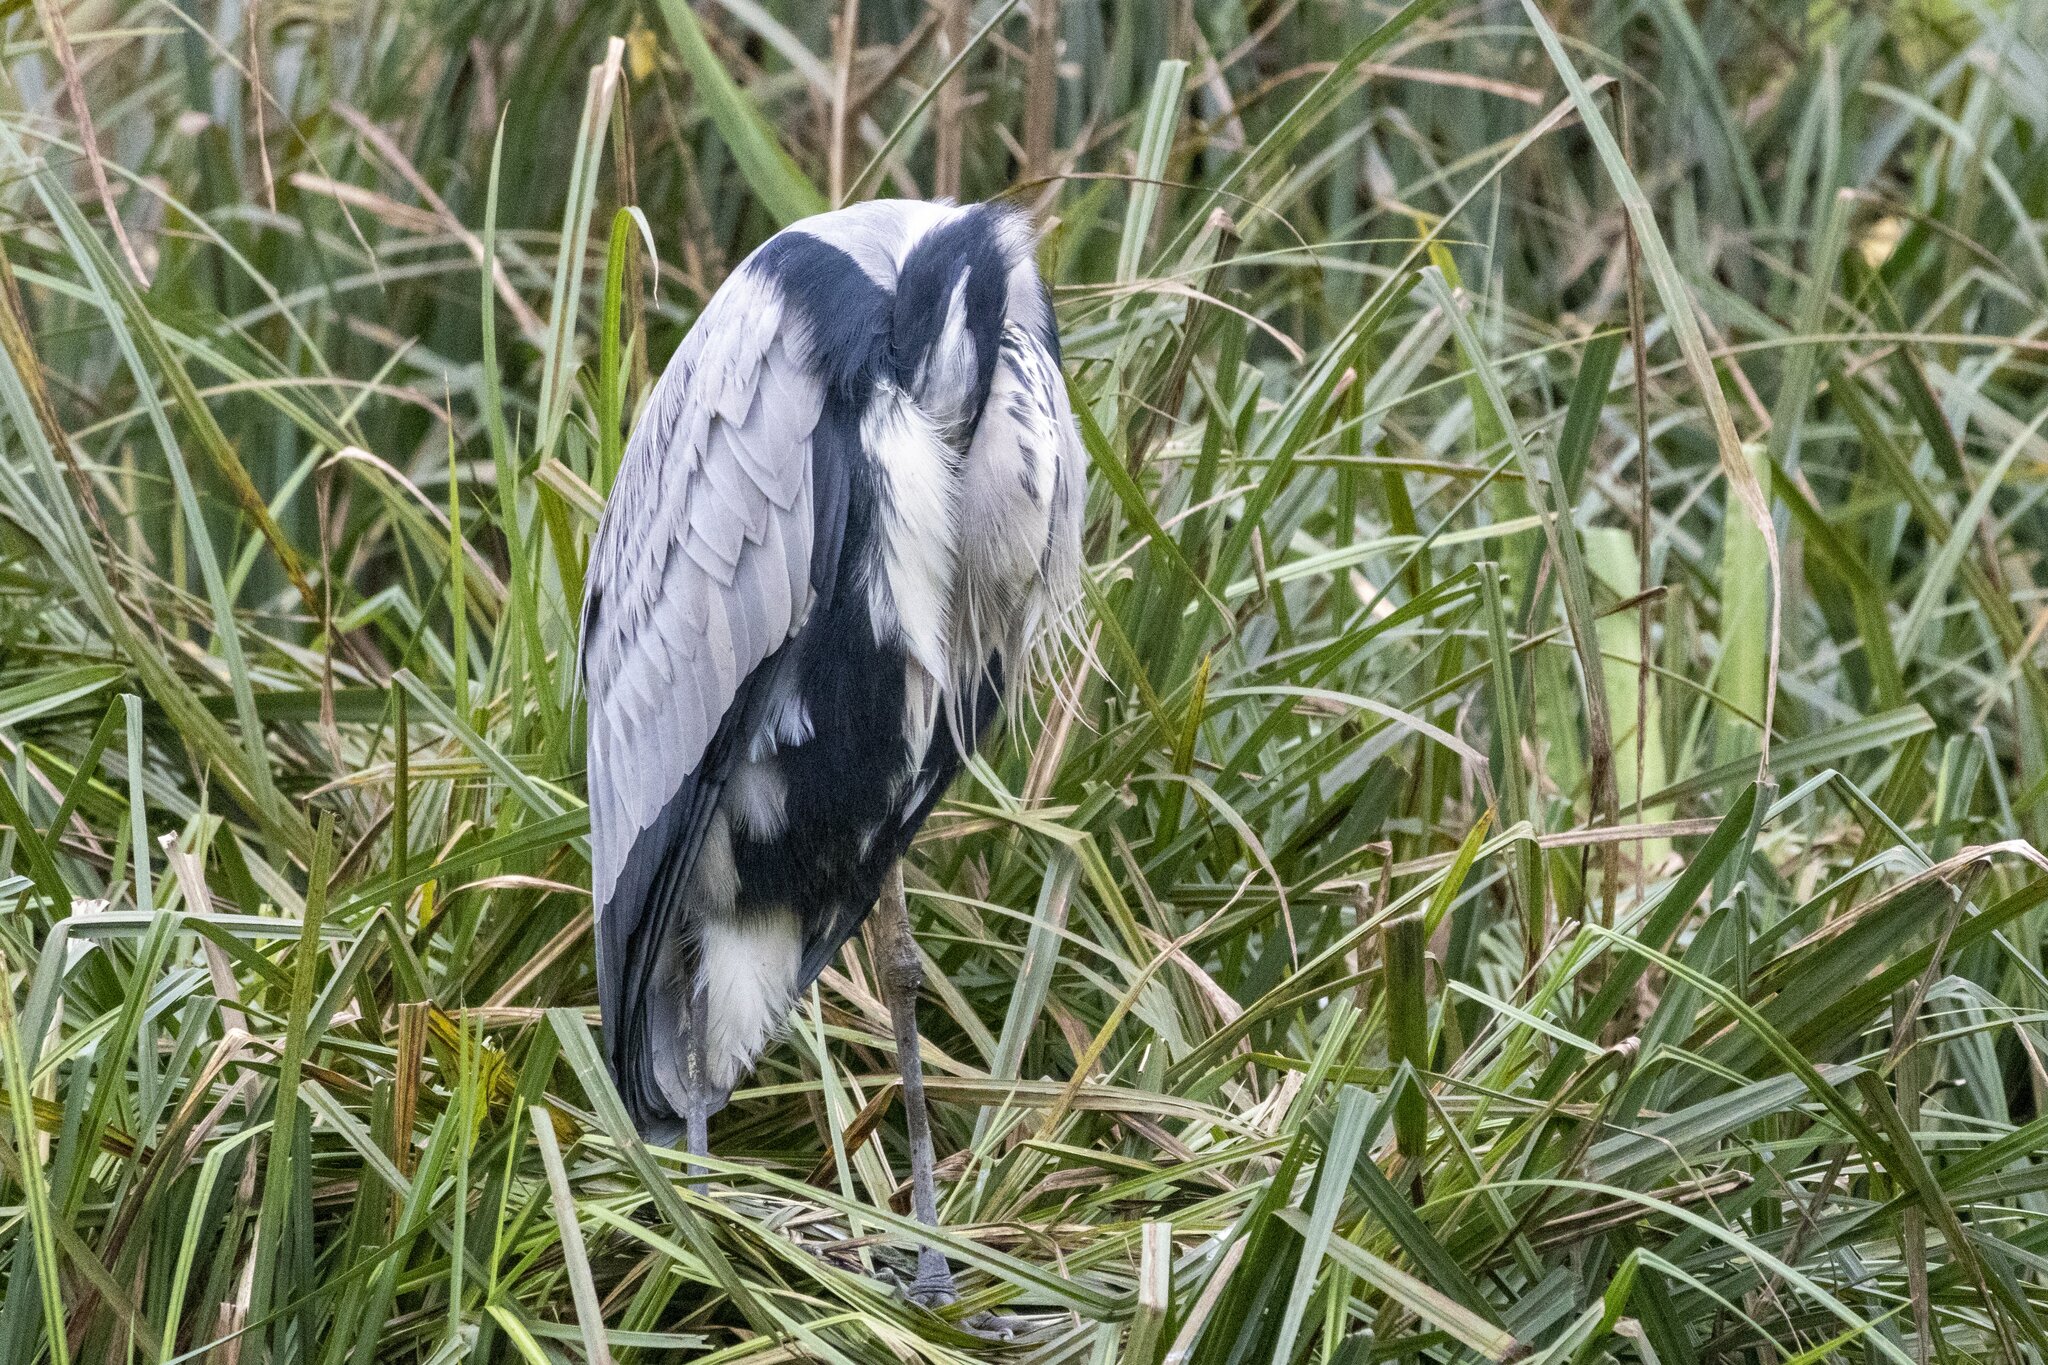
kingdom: Animalia
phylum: Chordata
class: Aves
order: Pelecaniformes
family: Ardeidae
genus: Ardea
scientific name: Ardea cinerea
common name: Grey heron
